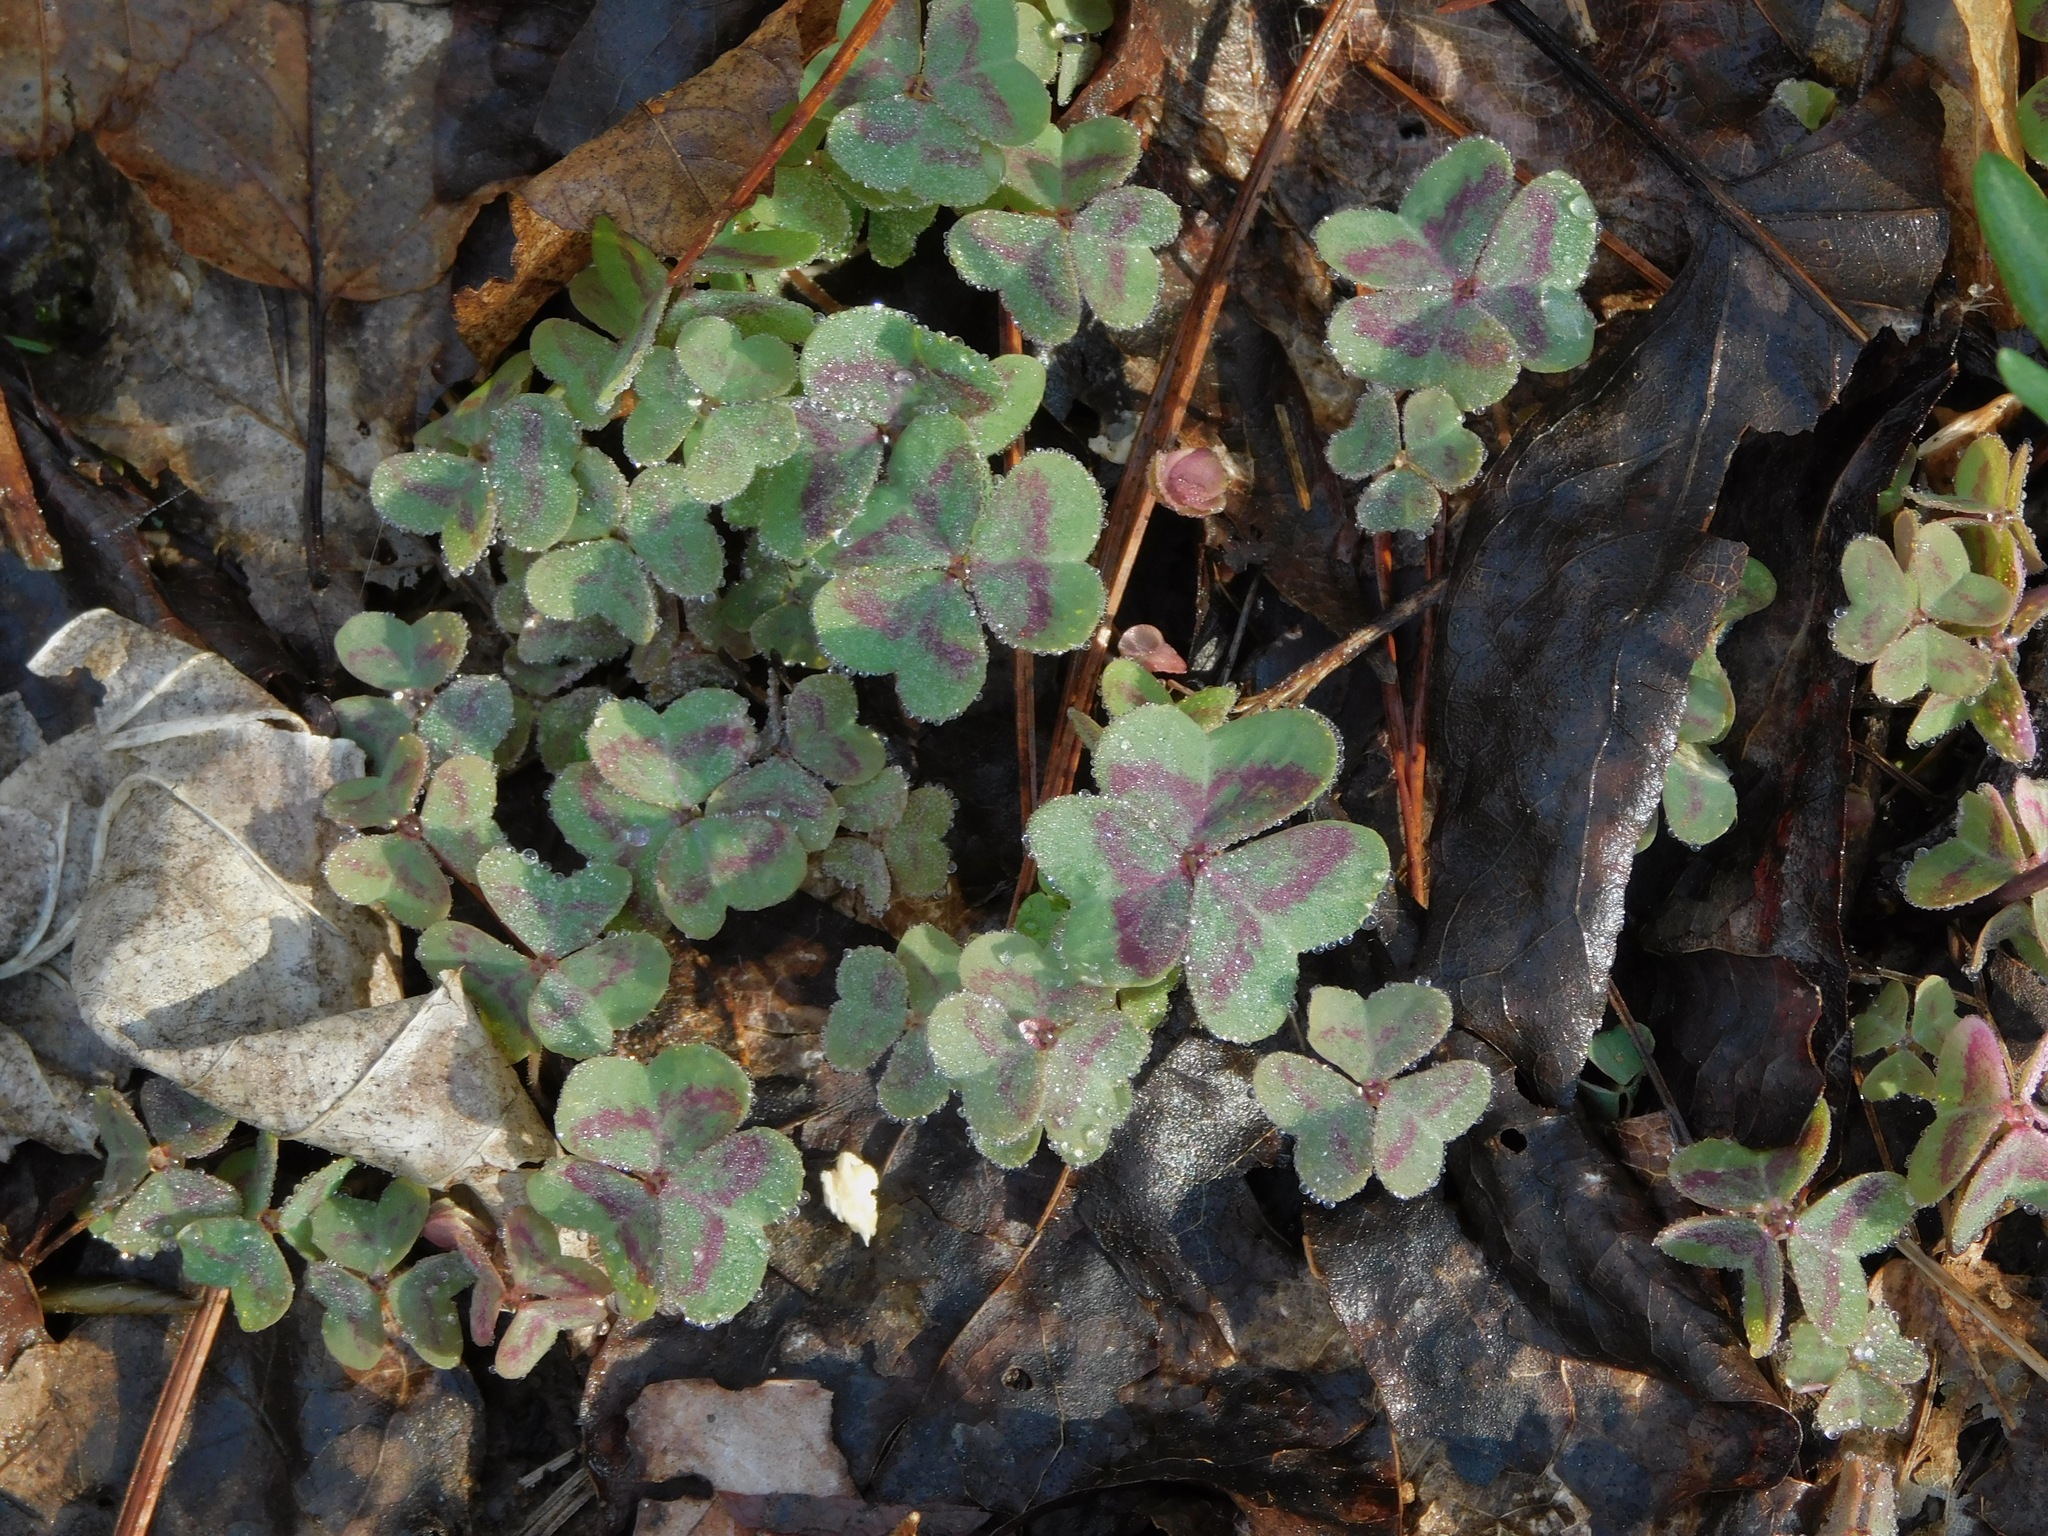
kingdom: Plantae
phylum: Tracheophyta
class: Magnoliopsida
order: Oxalidales
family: Oxalidaceae
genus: Oxalis
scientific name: Oxalis violacea
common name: Violet wood-sorrel
